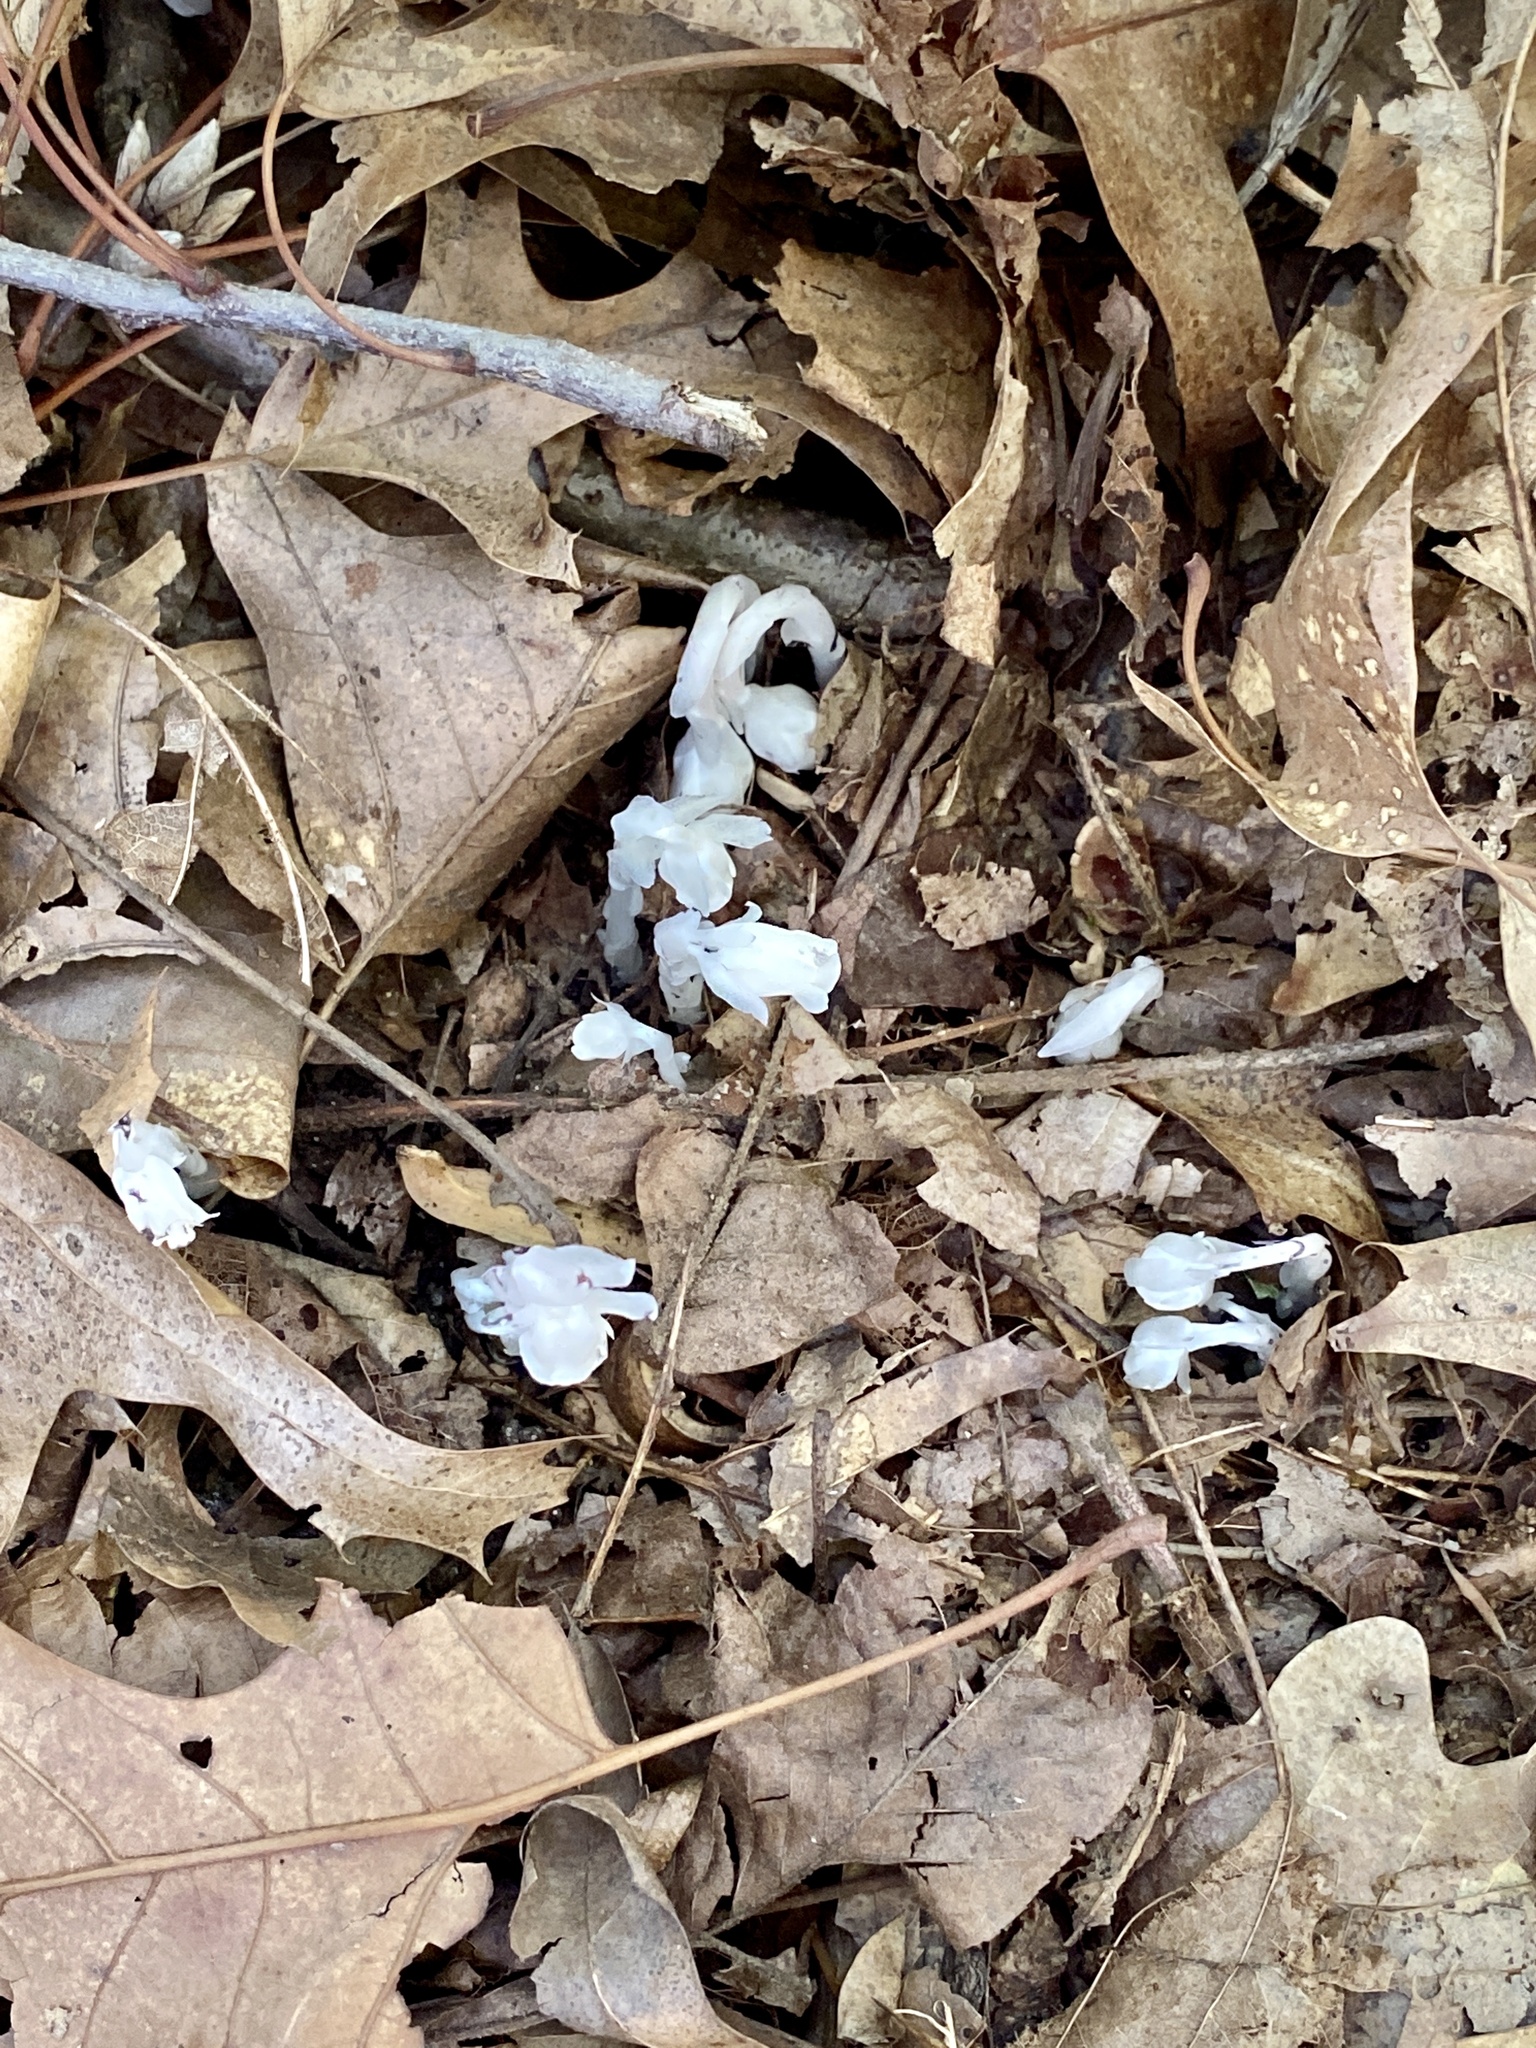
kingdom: Plantae
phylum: Tracheophyta
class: Magnoliopsida
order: Ericales
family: Ericaceae
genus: Monotropa
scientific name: Monotropa uniflora
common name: Convulsion root
